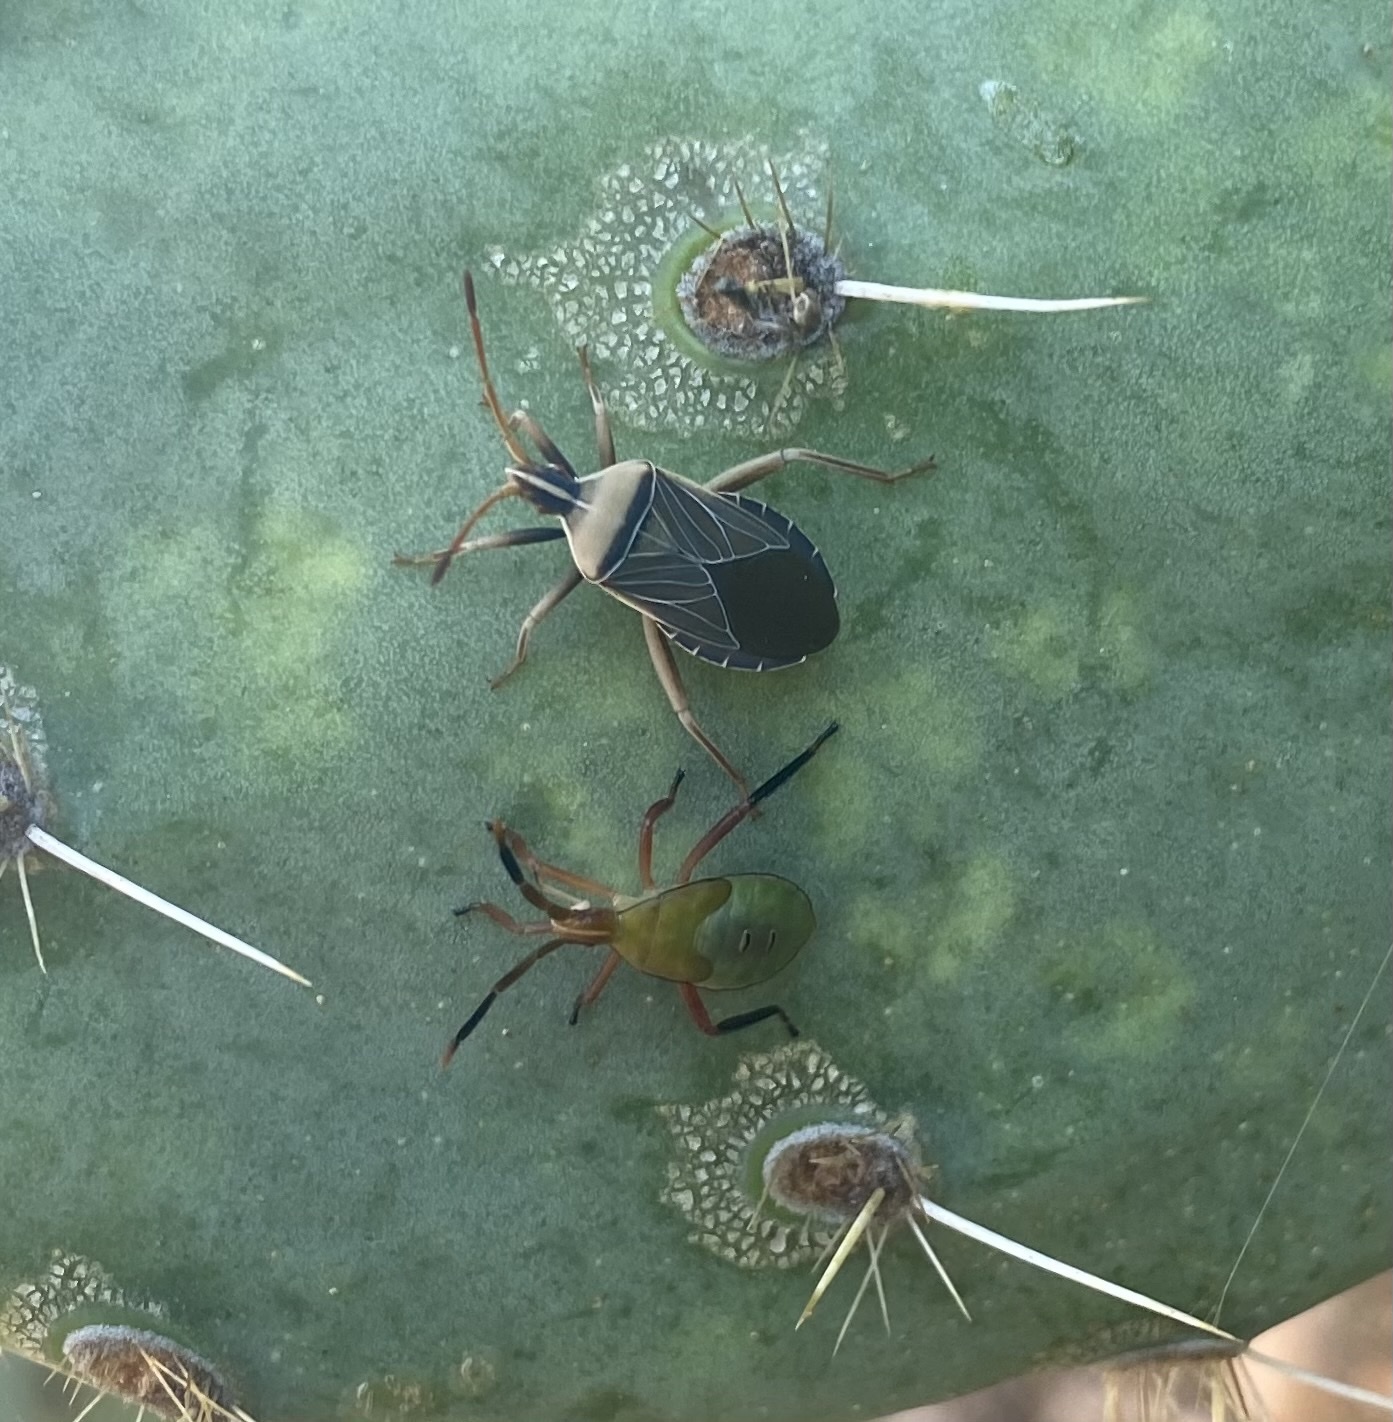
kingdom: Animalia
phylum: Arthropoda
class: Insecta
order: Hemiptera
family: Coreidae
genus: Chelinidea
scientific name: Chelinidea vittiger
